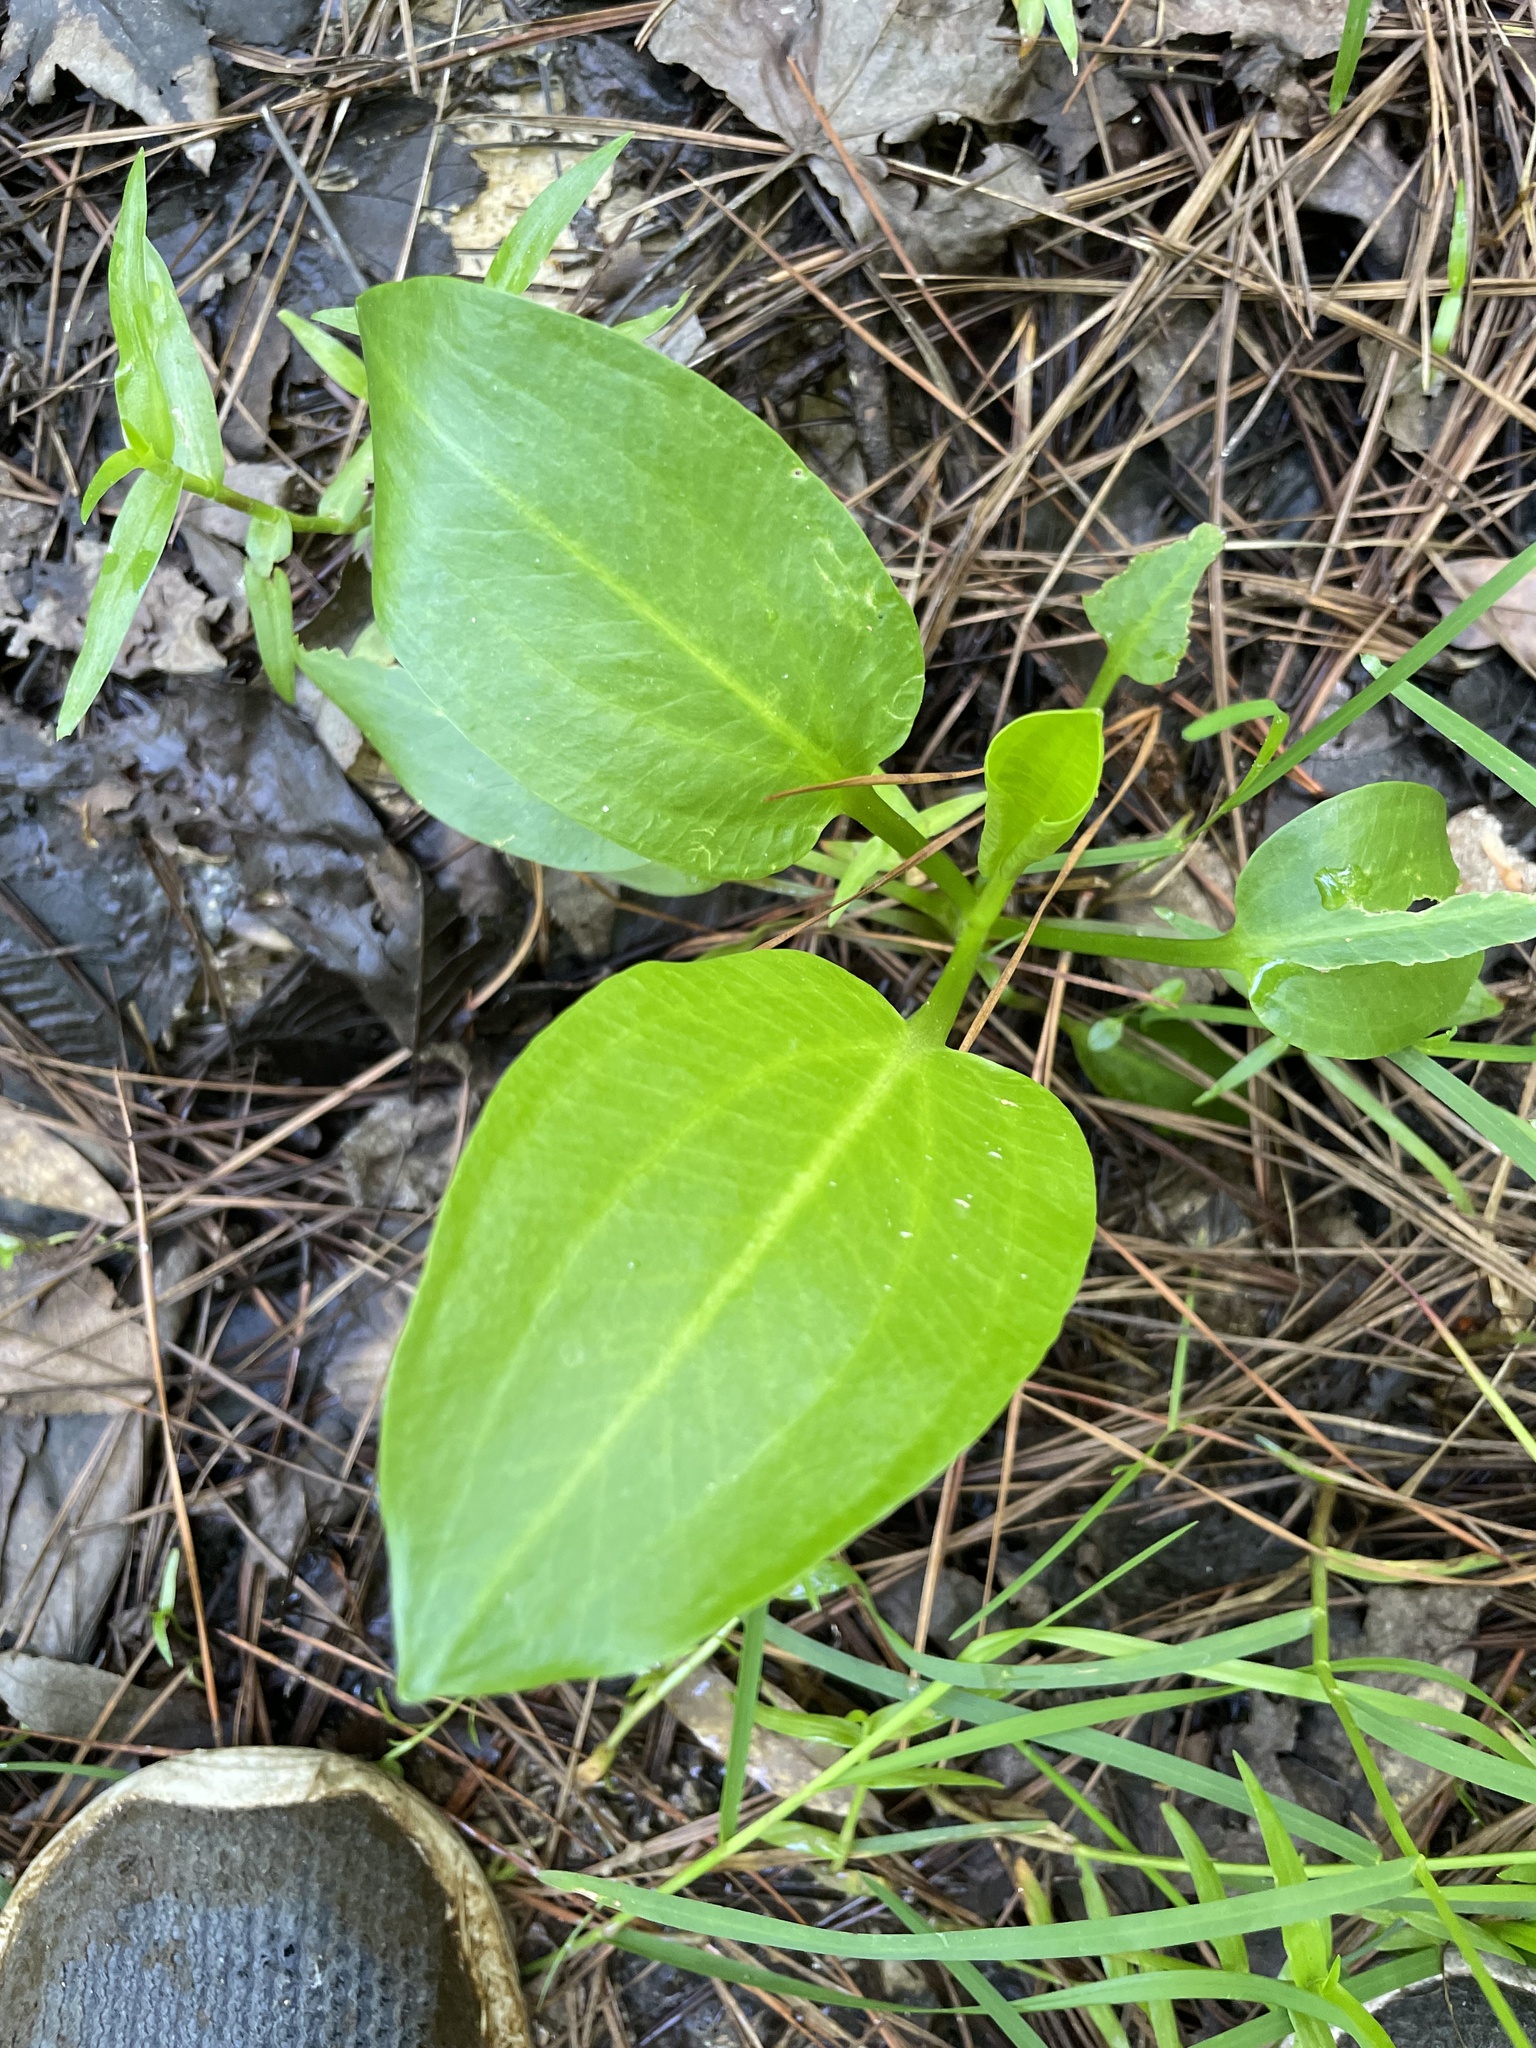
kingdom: Plantae
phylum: Tracheophyta
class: Liliopsida
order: Alismatales
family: Alismataceae
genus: Alisma
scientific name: Alisma subcordatum
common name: Southern water-plantain
